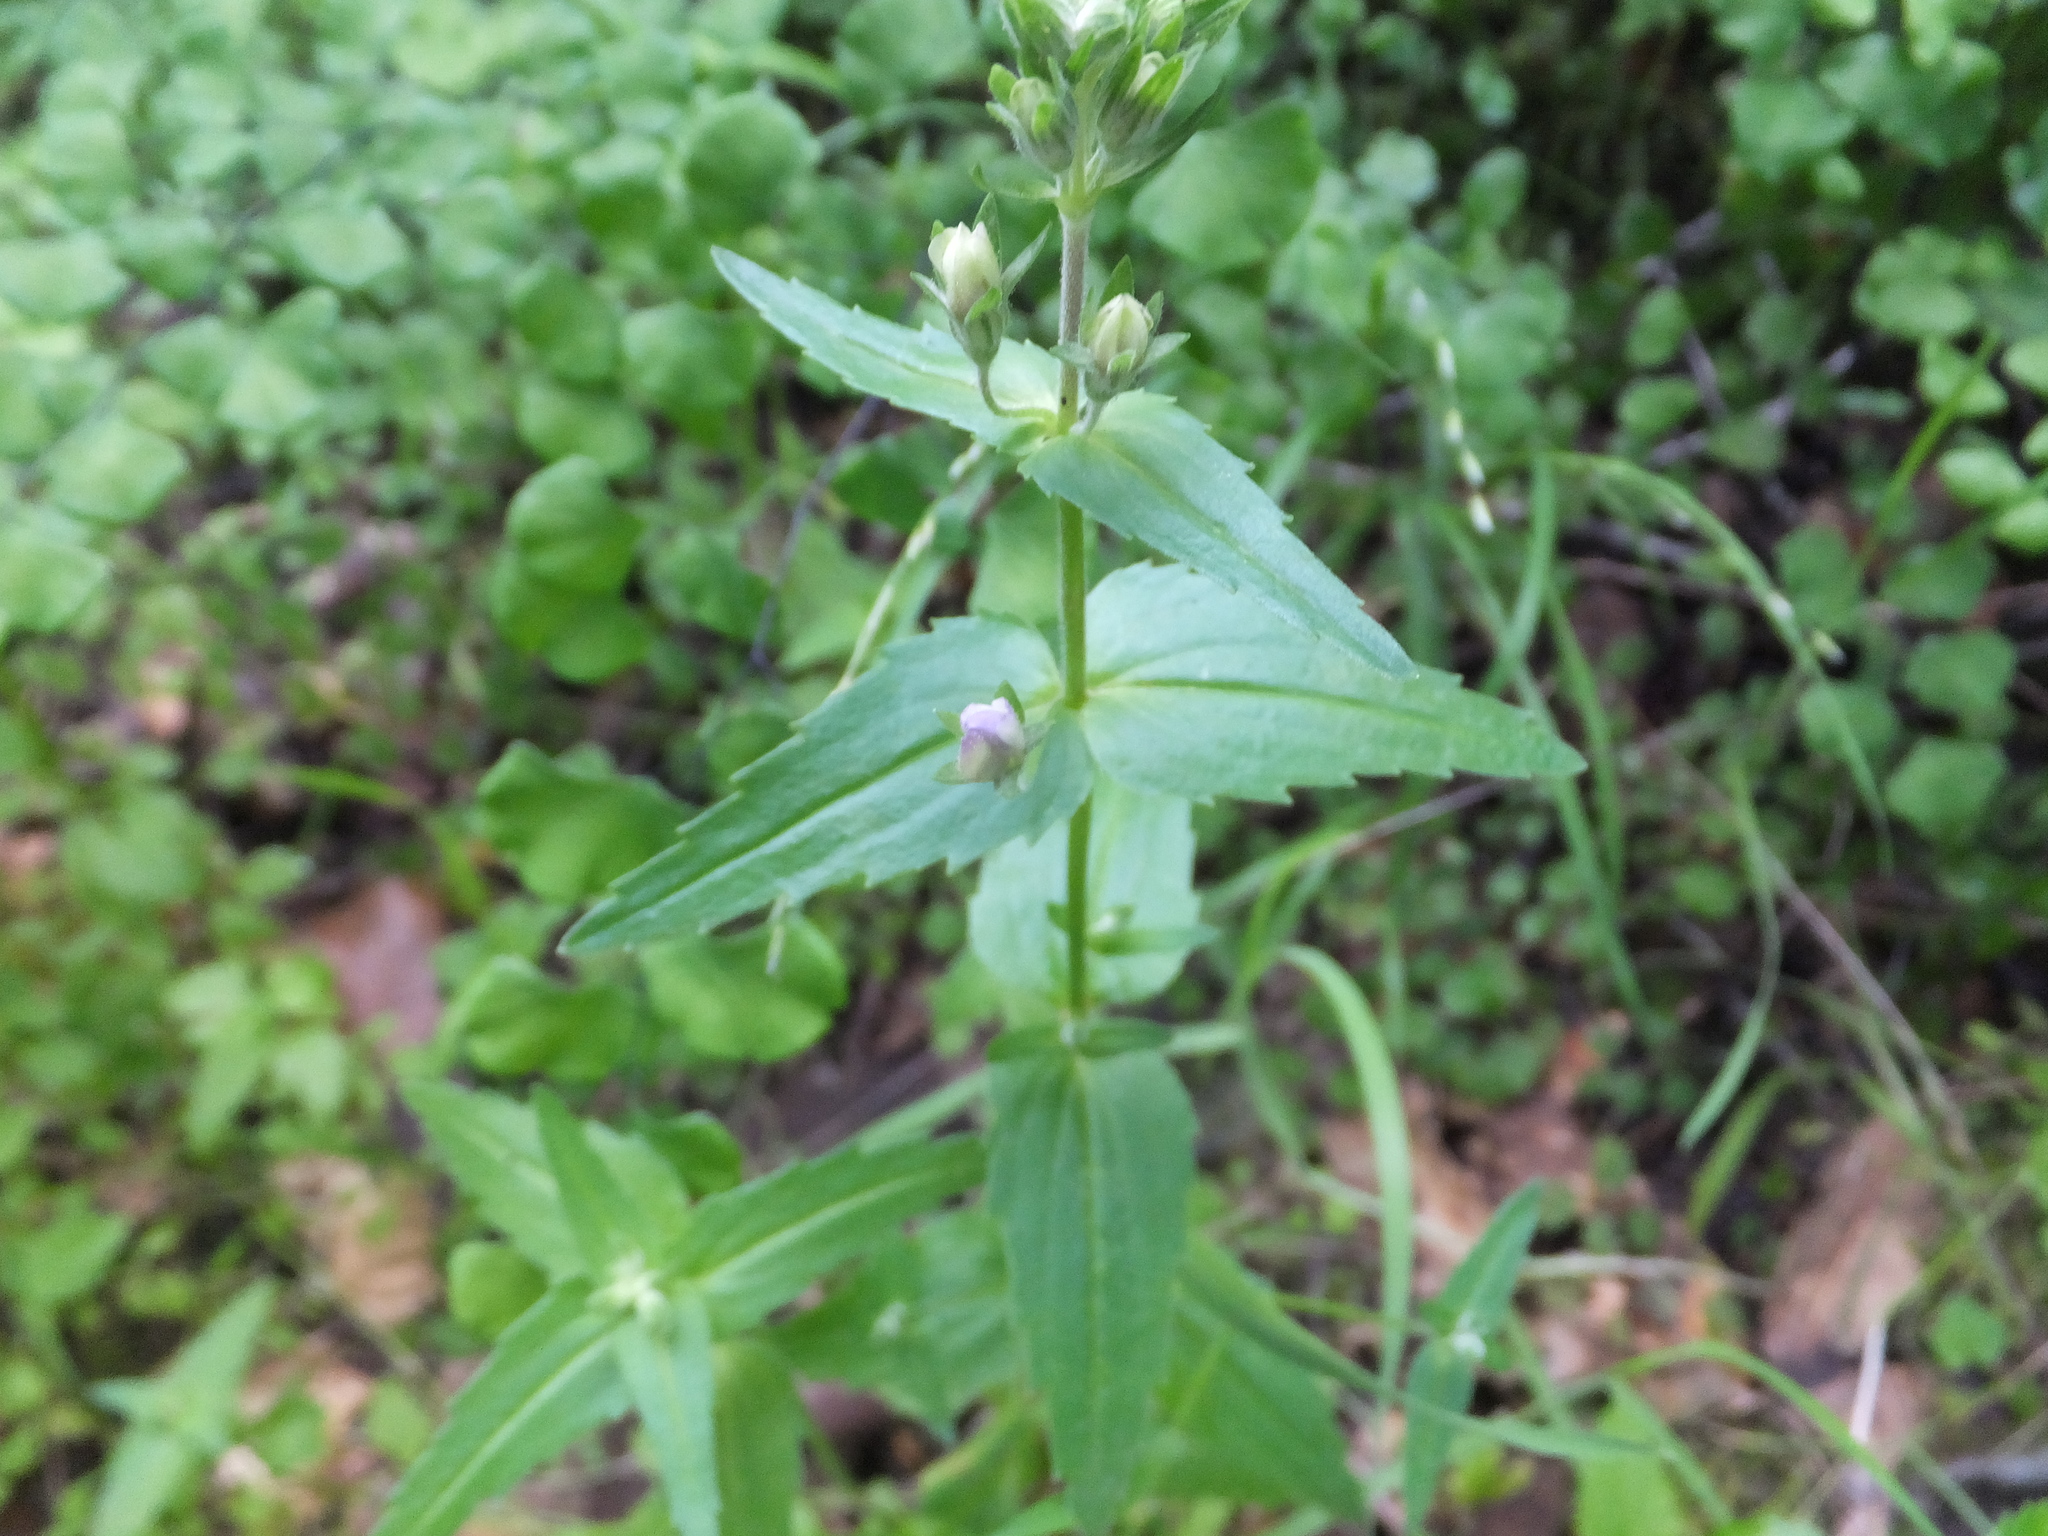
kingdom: Plantae
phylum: Tracheophyta
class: Magnoliopsida
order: Lamiales
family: Plantaginaceae
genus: Collinsia
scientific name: Collinsia multicolor
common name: San francisco collinsia
